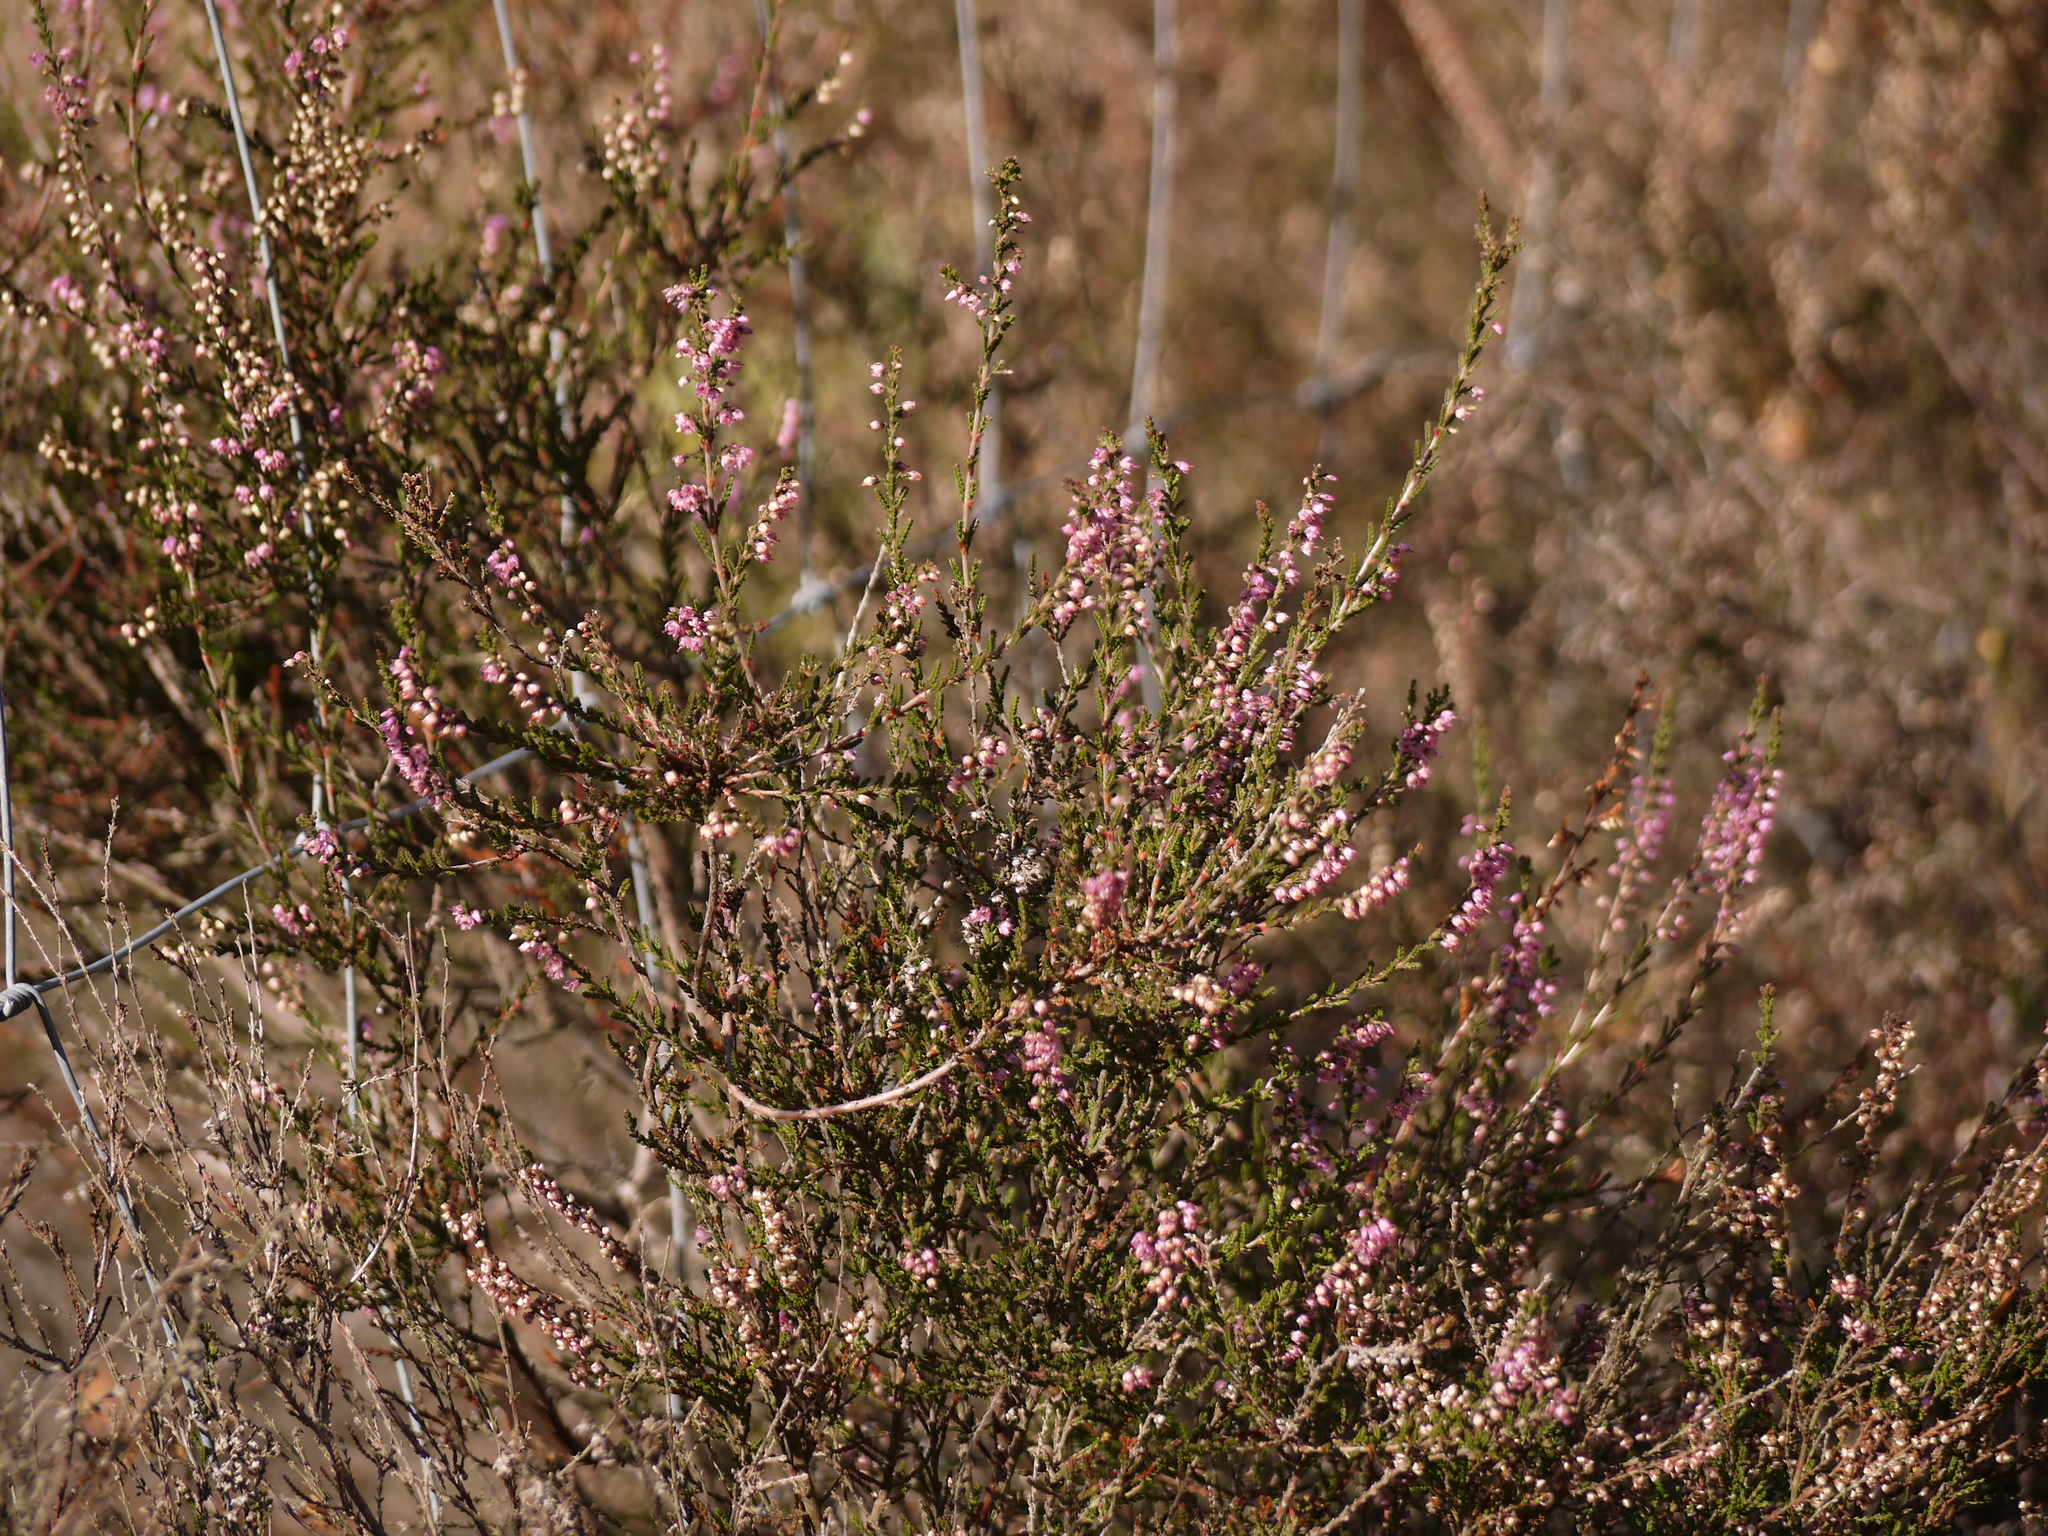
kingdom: Plantae
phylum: Tracheophyta
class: Magnoliopsida
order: Ericales
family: Ericaceae
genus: Calluna
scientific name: Calluna vulgaris
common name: Heather
